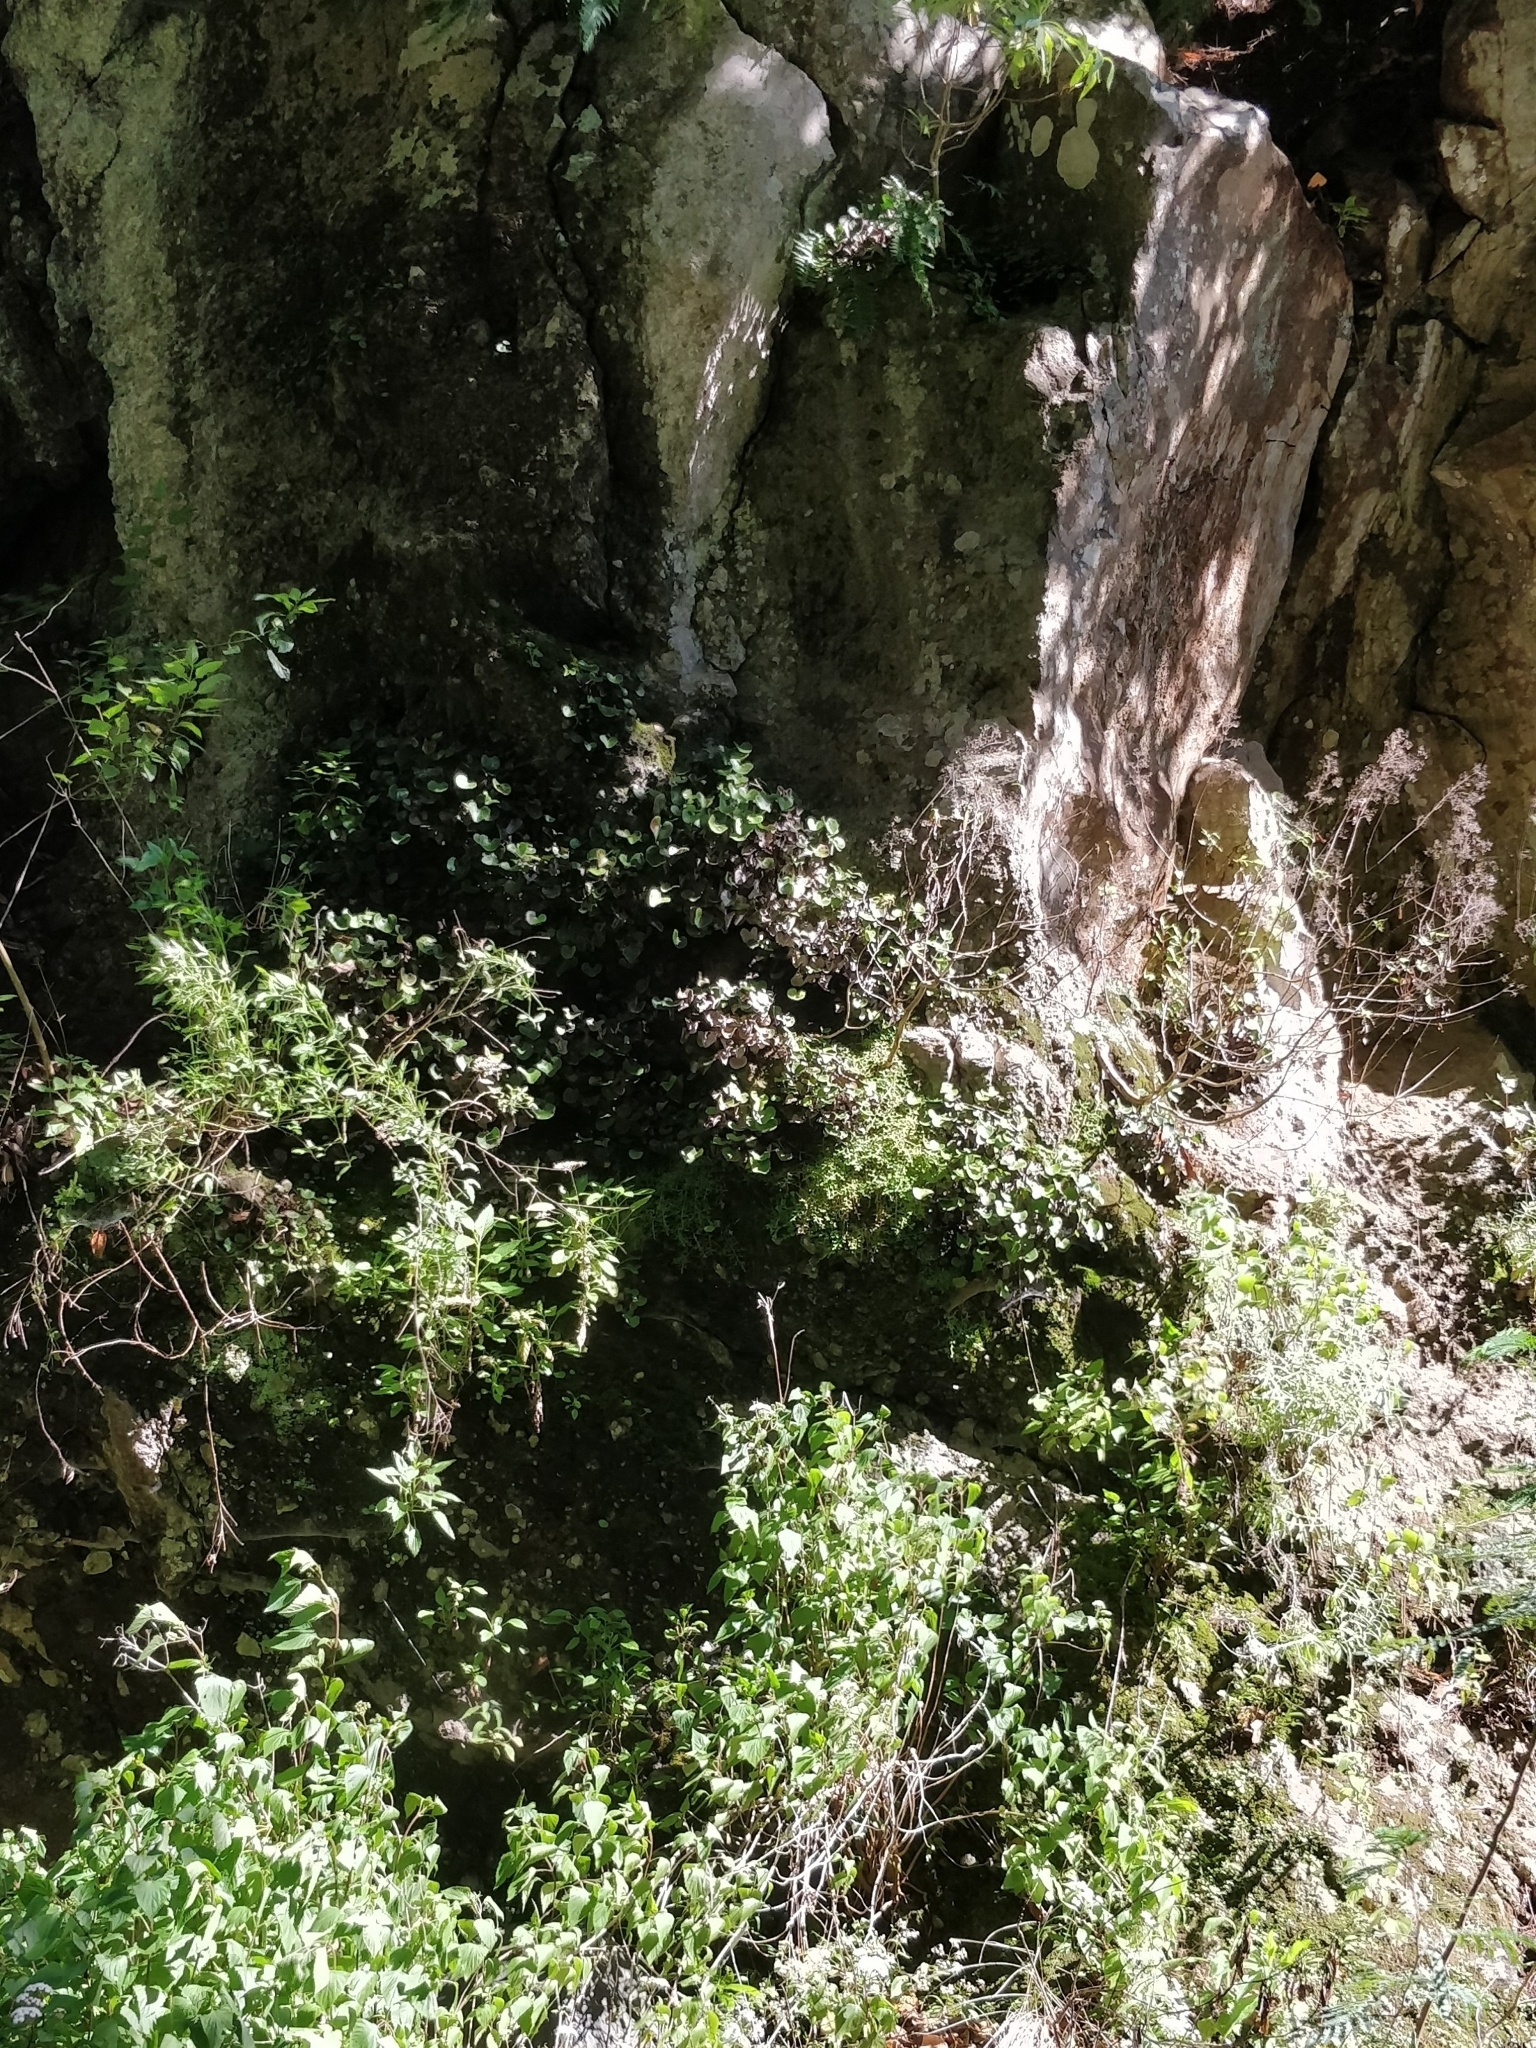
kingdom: Plantae
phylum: Tracheophyta
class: Polypodiopsida
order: Polypodiales
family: Pteridaceae
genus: Adiantum
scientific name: Adiantum reniforme
